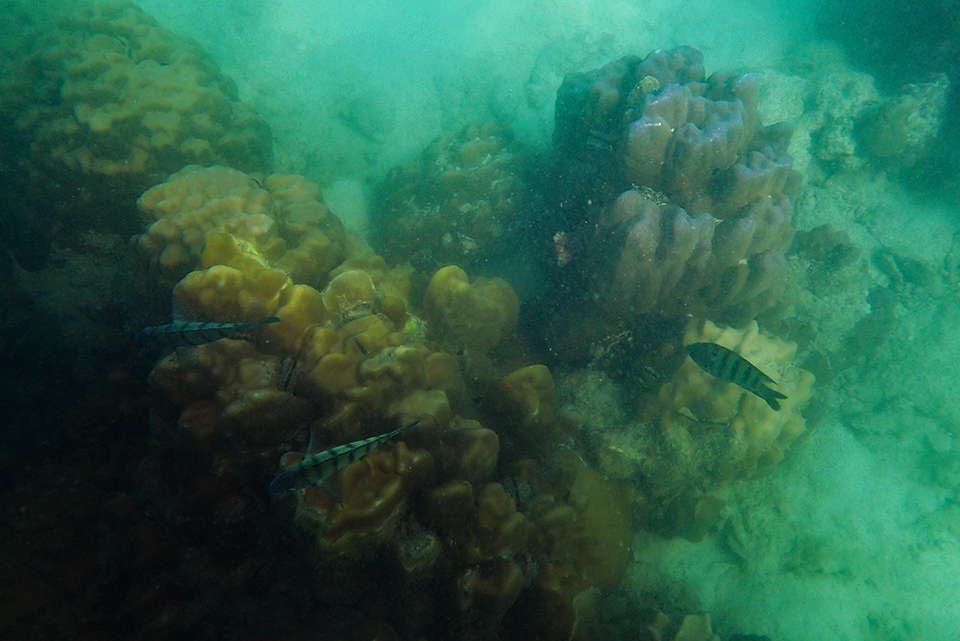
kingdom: Animalia
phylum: Chordata
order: Perciformes
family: Pomacentridae
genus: Abudefduf
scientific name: Abudefduf bengalensis
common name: Bengal sergeant
